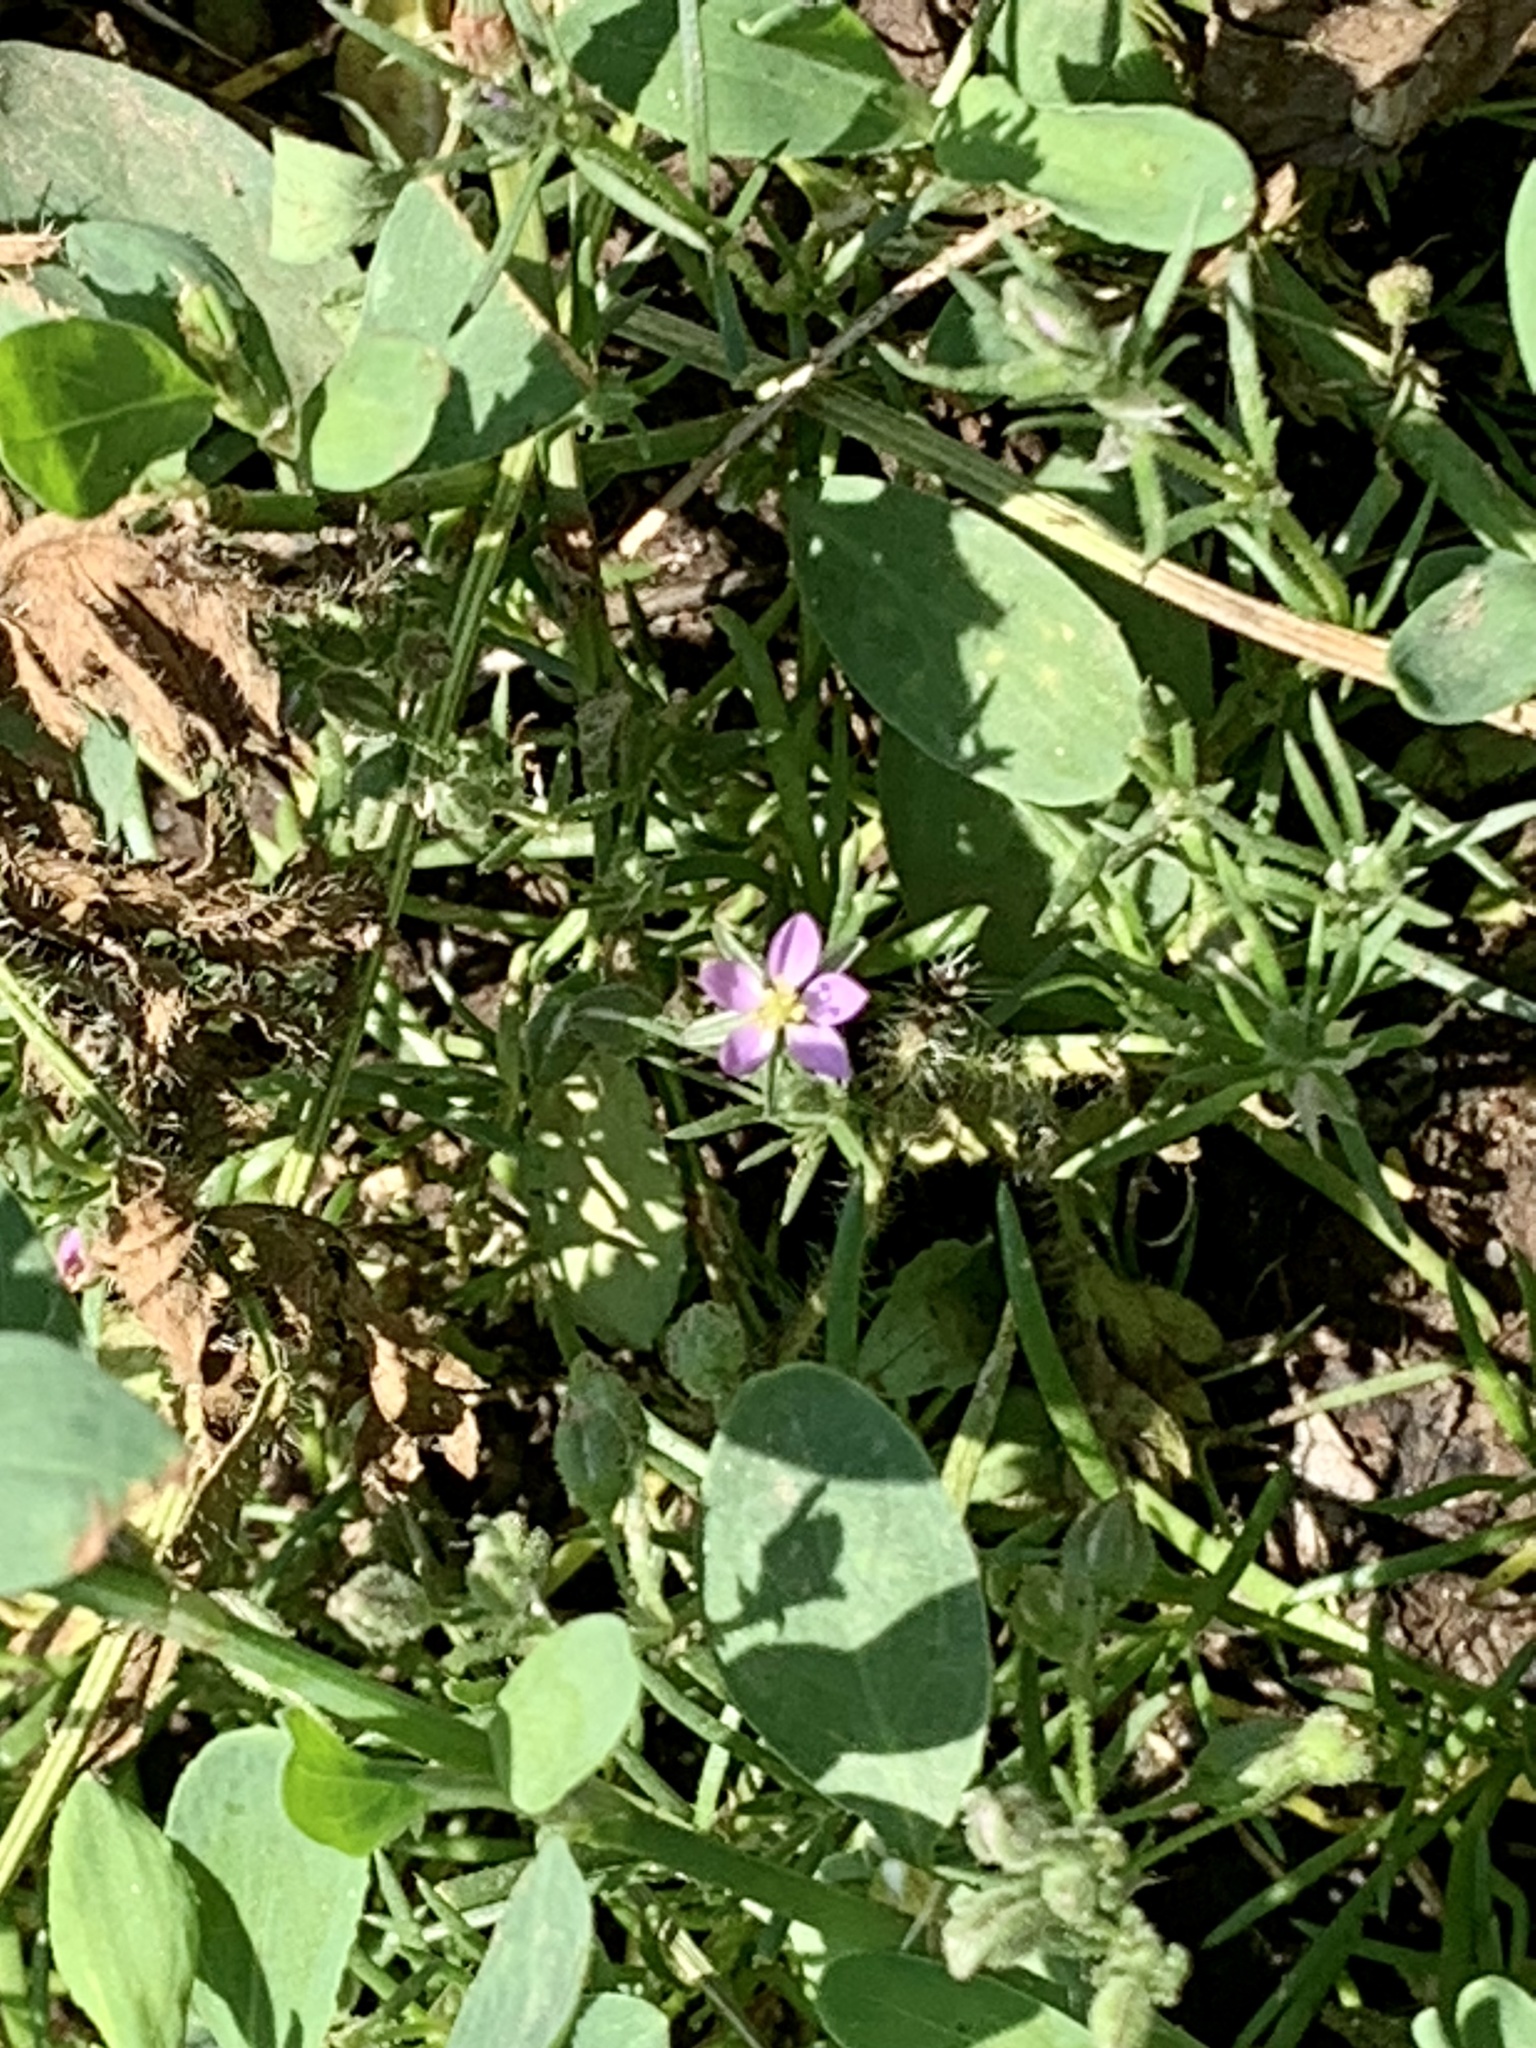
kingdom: Plantae
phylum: Tracheophyta
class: Magnoliopsida
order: Caryophyllales
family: Caryophyllaceae
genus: Spergularia
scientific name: Spergularia rubra
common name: Red sand-spurrey
